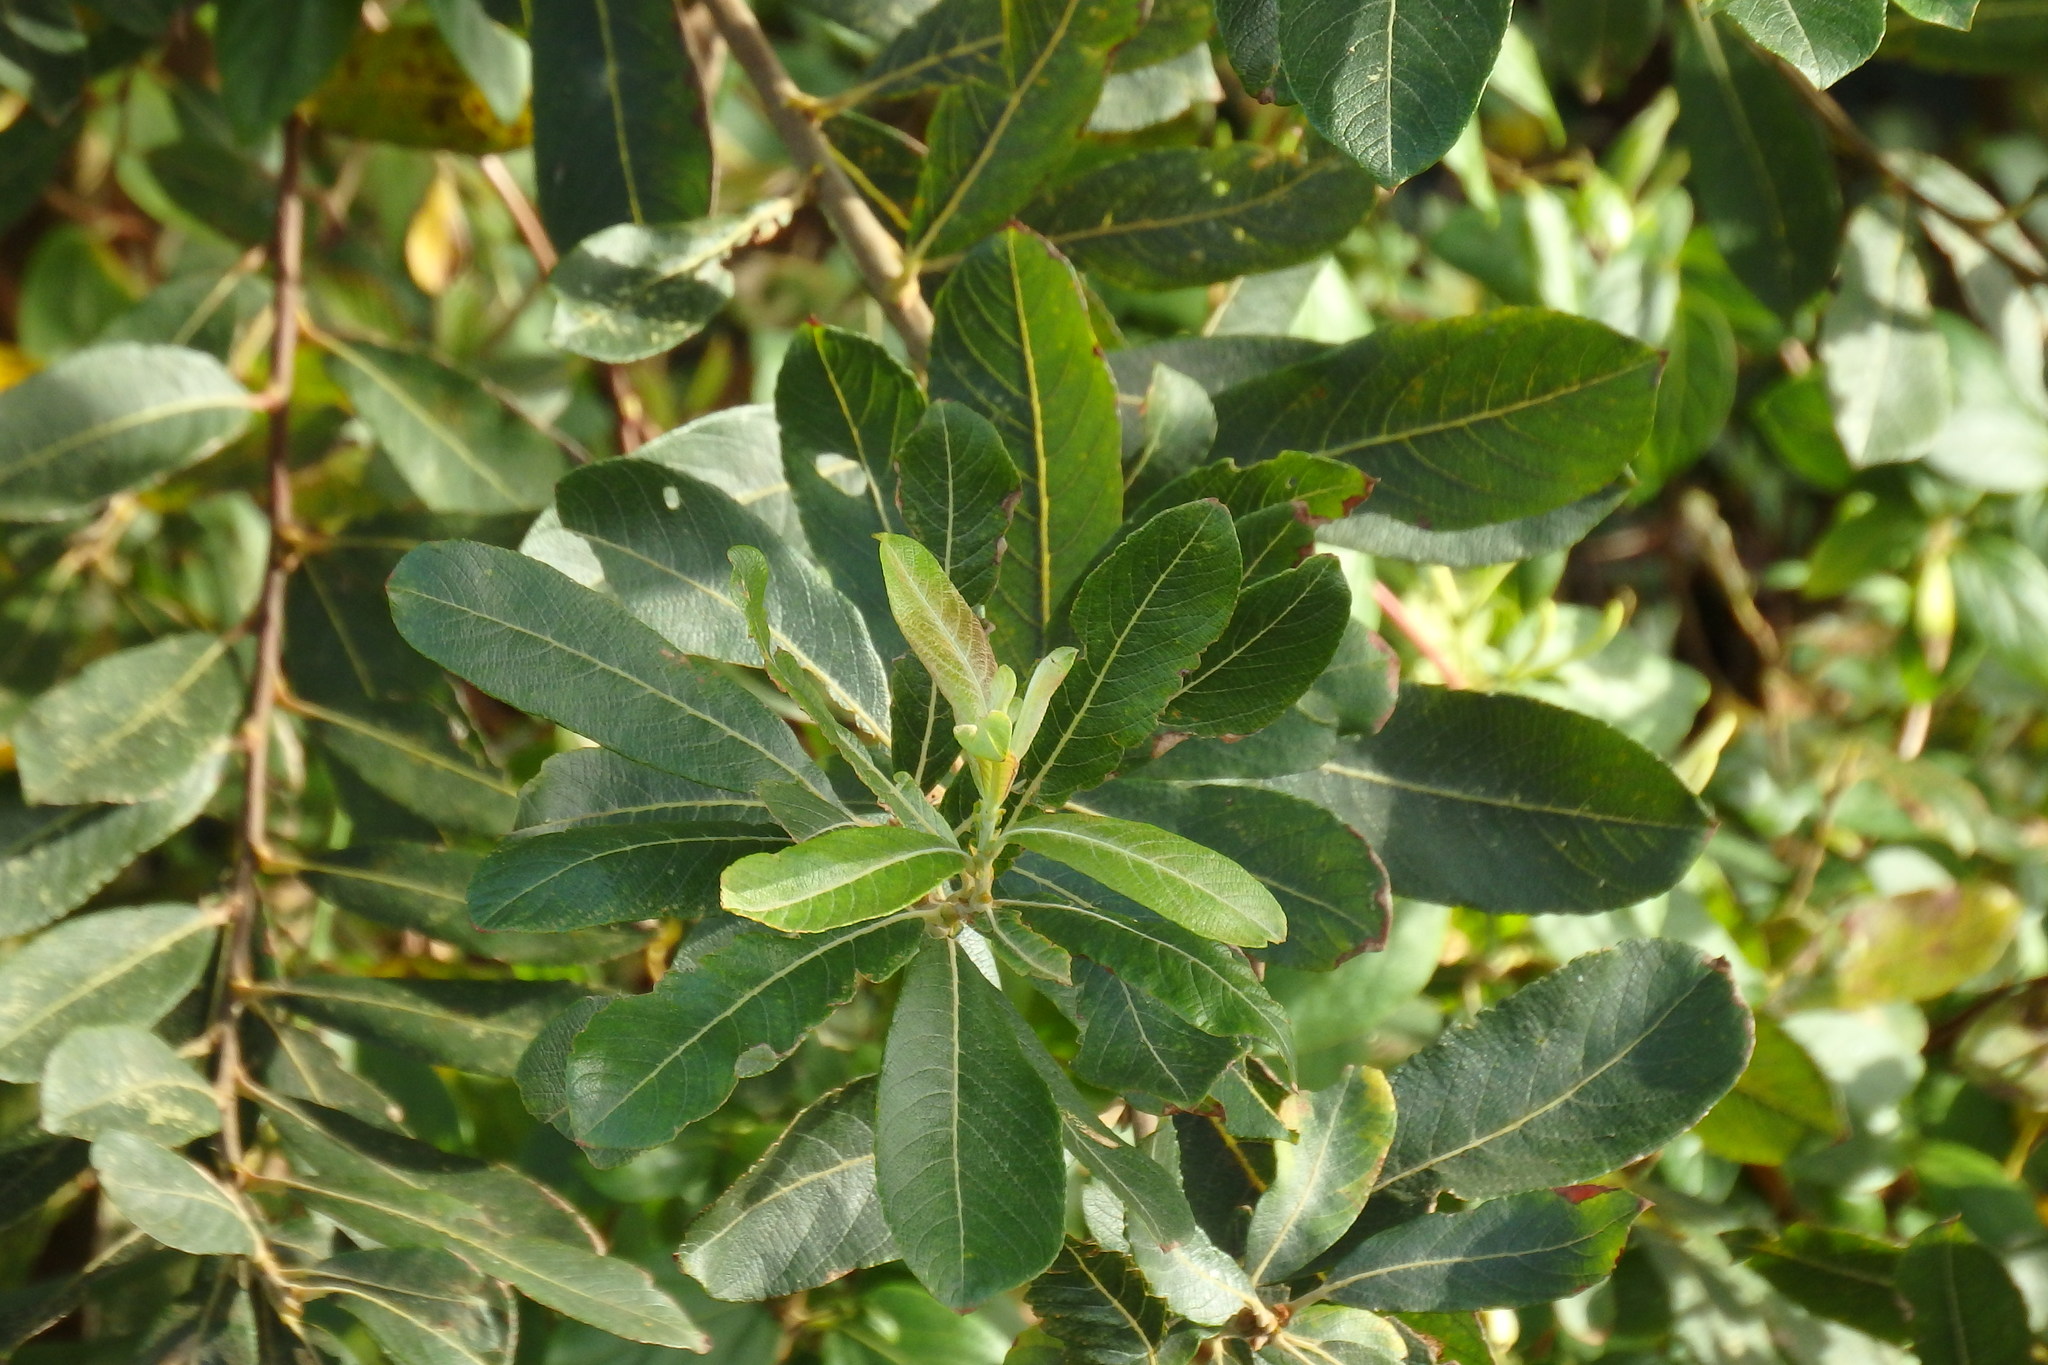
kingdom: Plantae
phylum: Tracheophyta
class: Magnoliopsida
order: Malpighiales
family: Salicaceae
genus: Salix
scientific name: Salix atrocinerea
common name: Rusty willow
